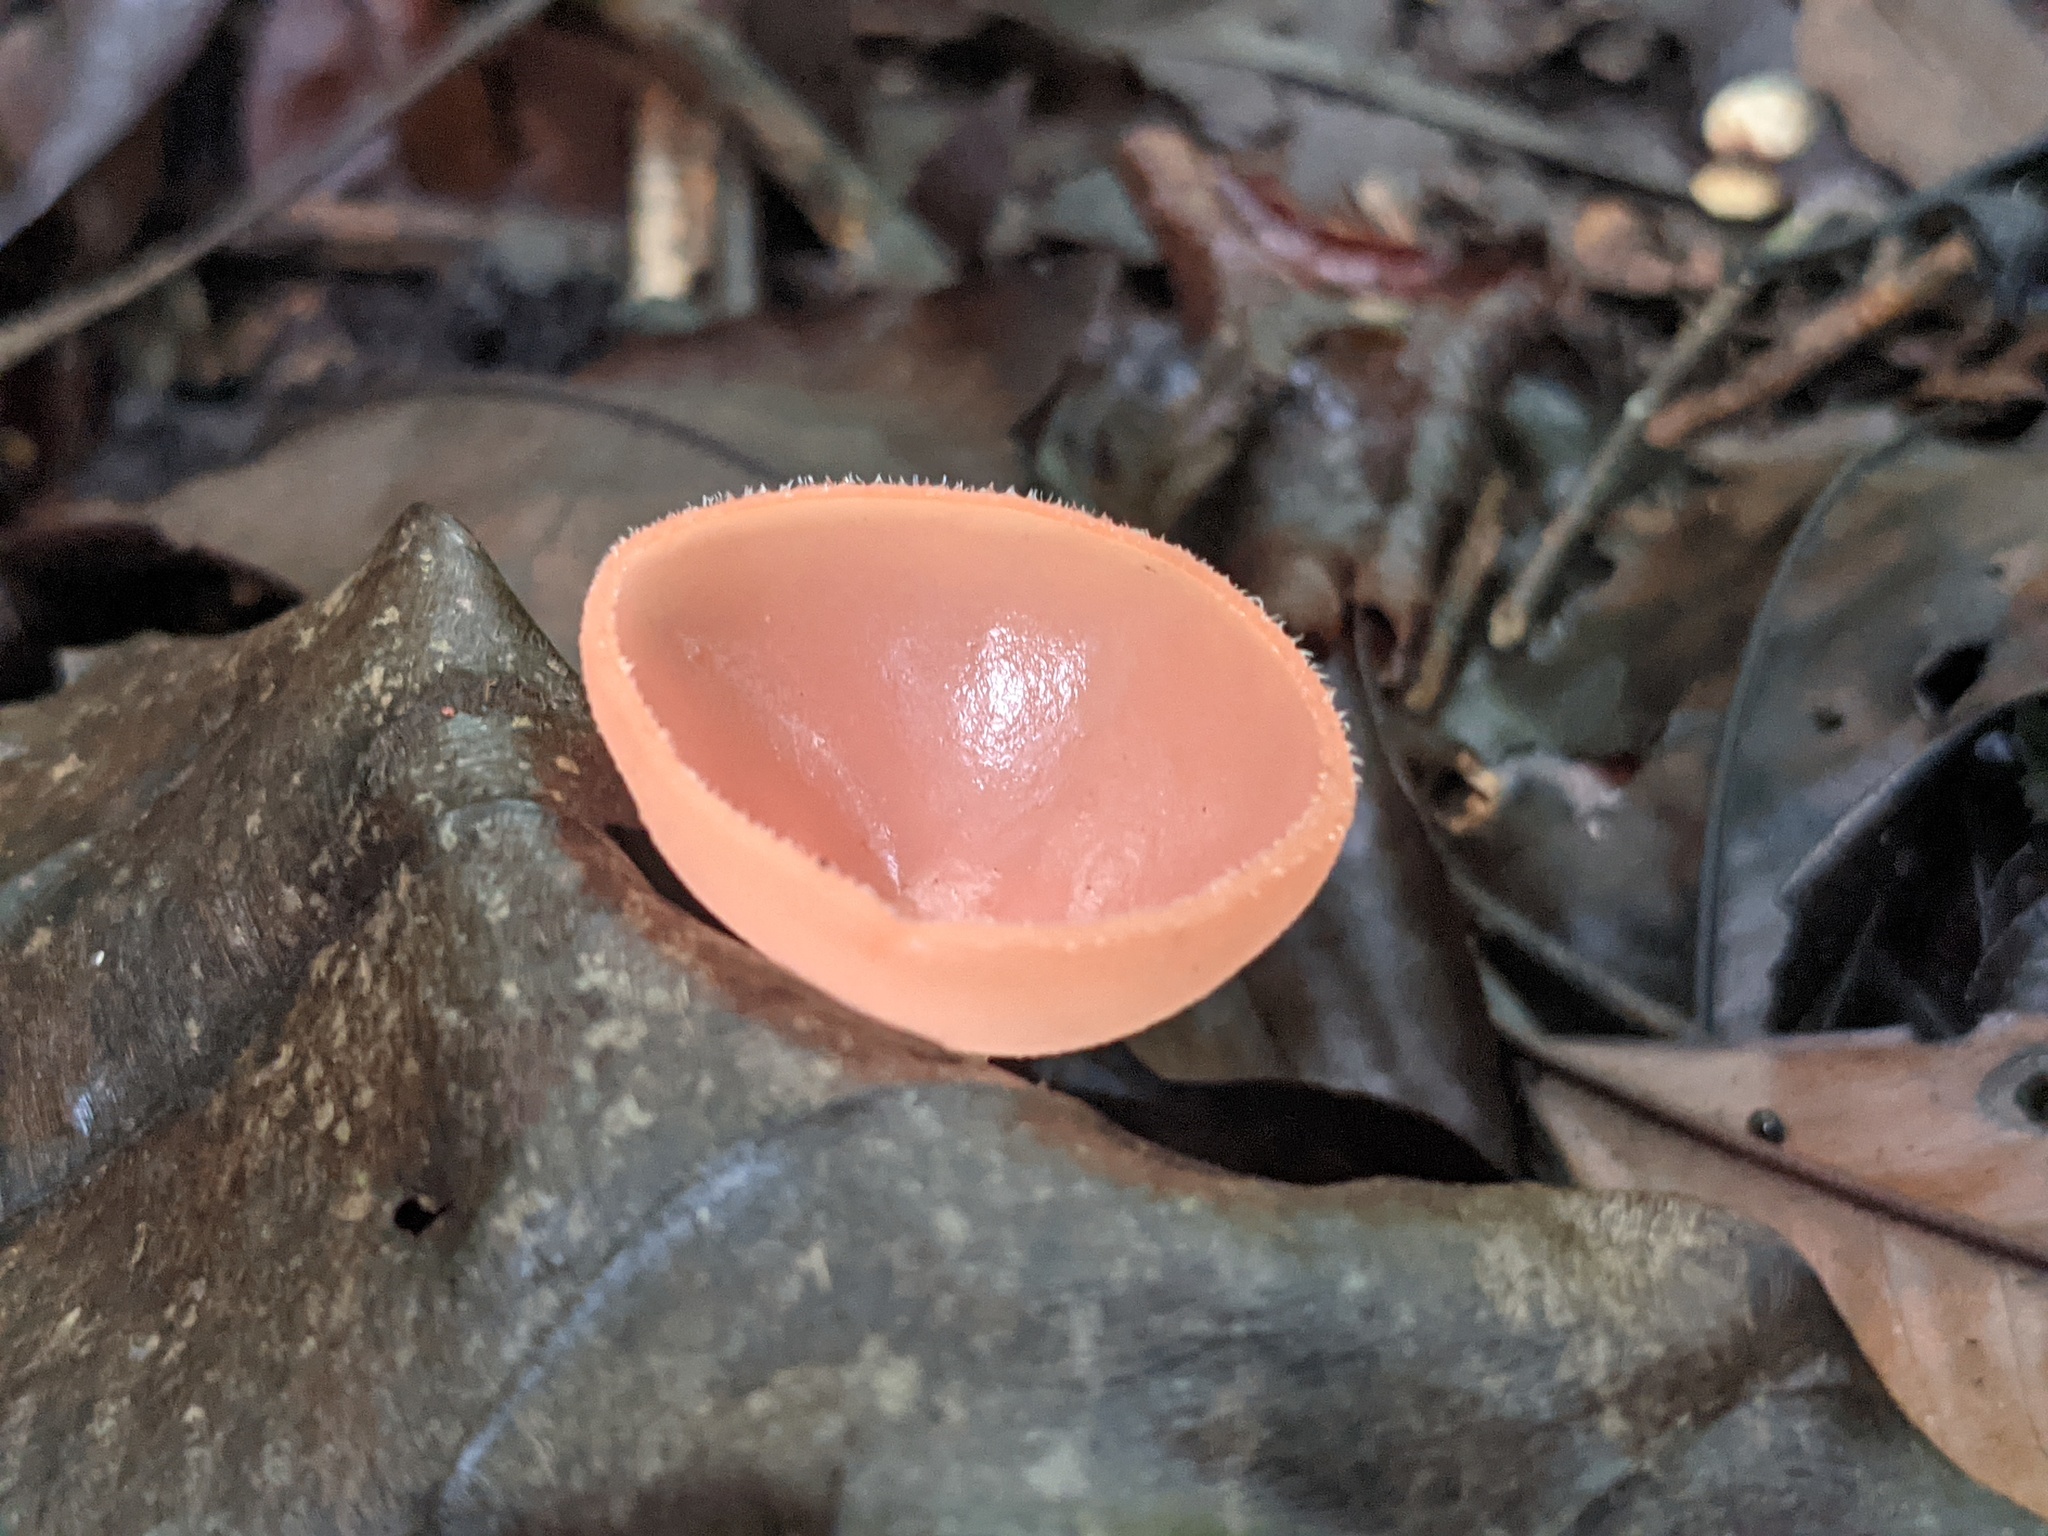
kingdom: Fungi
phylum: Ascomycota
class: Pezizomycetes
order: Pezizales
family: Sarcoscyphaceae
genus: Cookeina
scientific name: Cookeina speciosa
